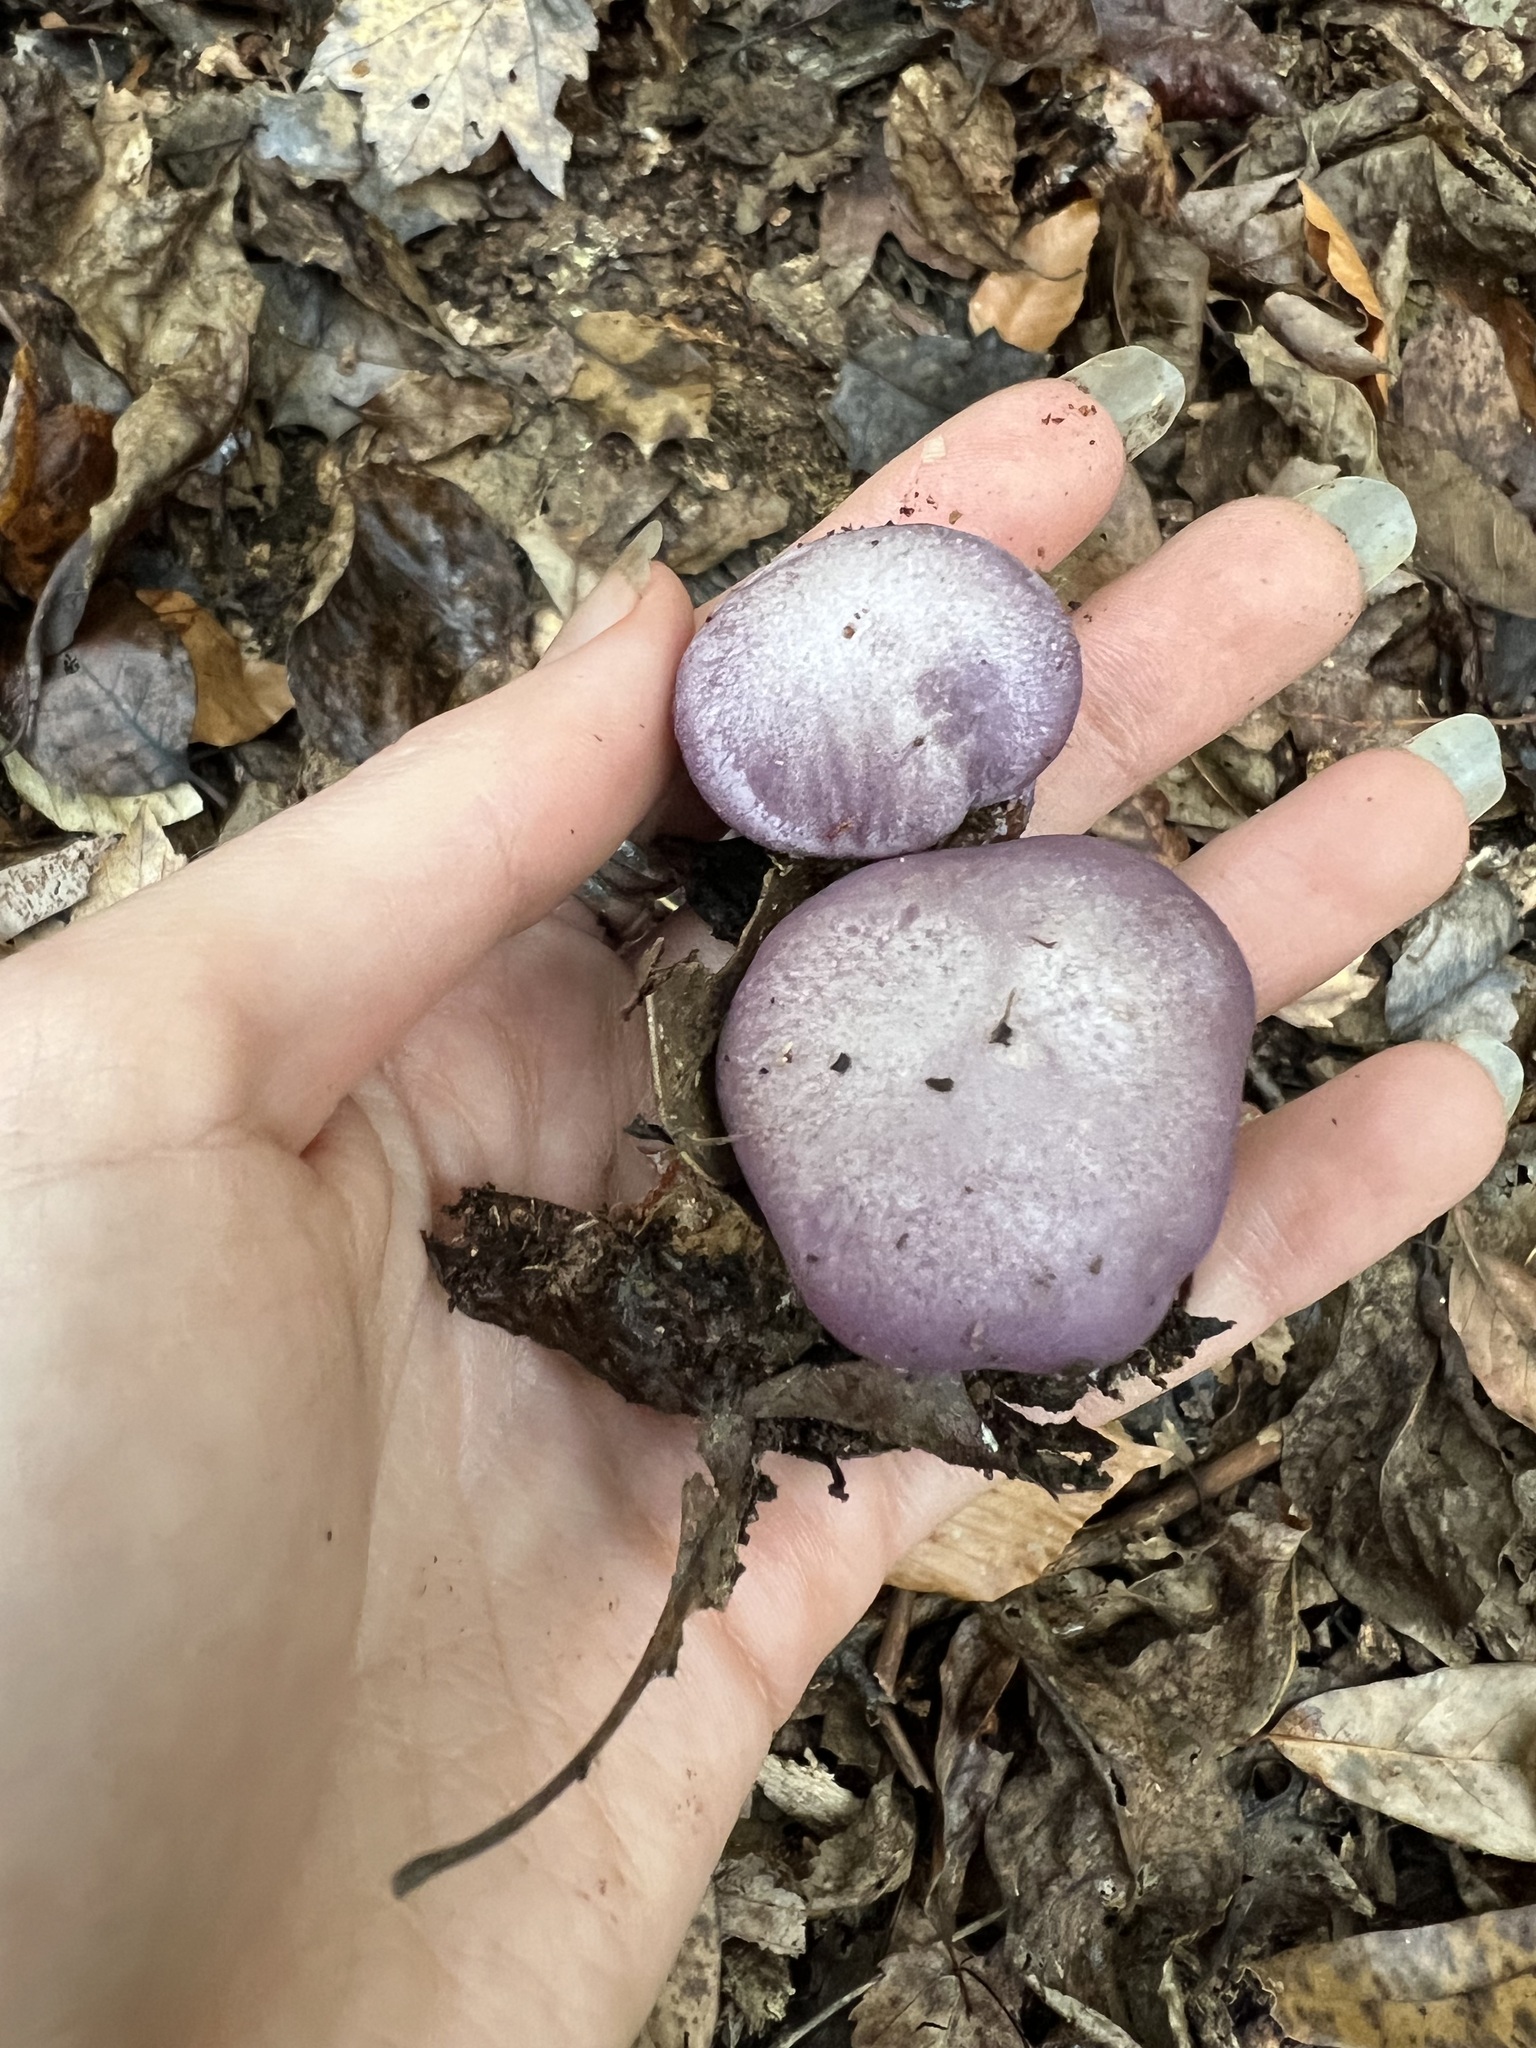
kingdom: Fungi
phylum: Basidiomycota
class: Agaricomycetes
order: Agaricales
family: Tricholomataceae
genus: Collybia
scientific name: Collybia
